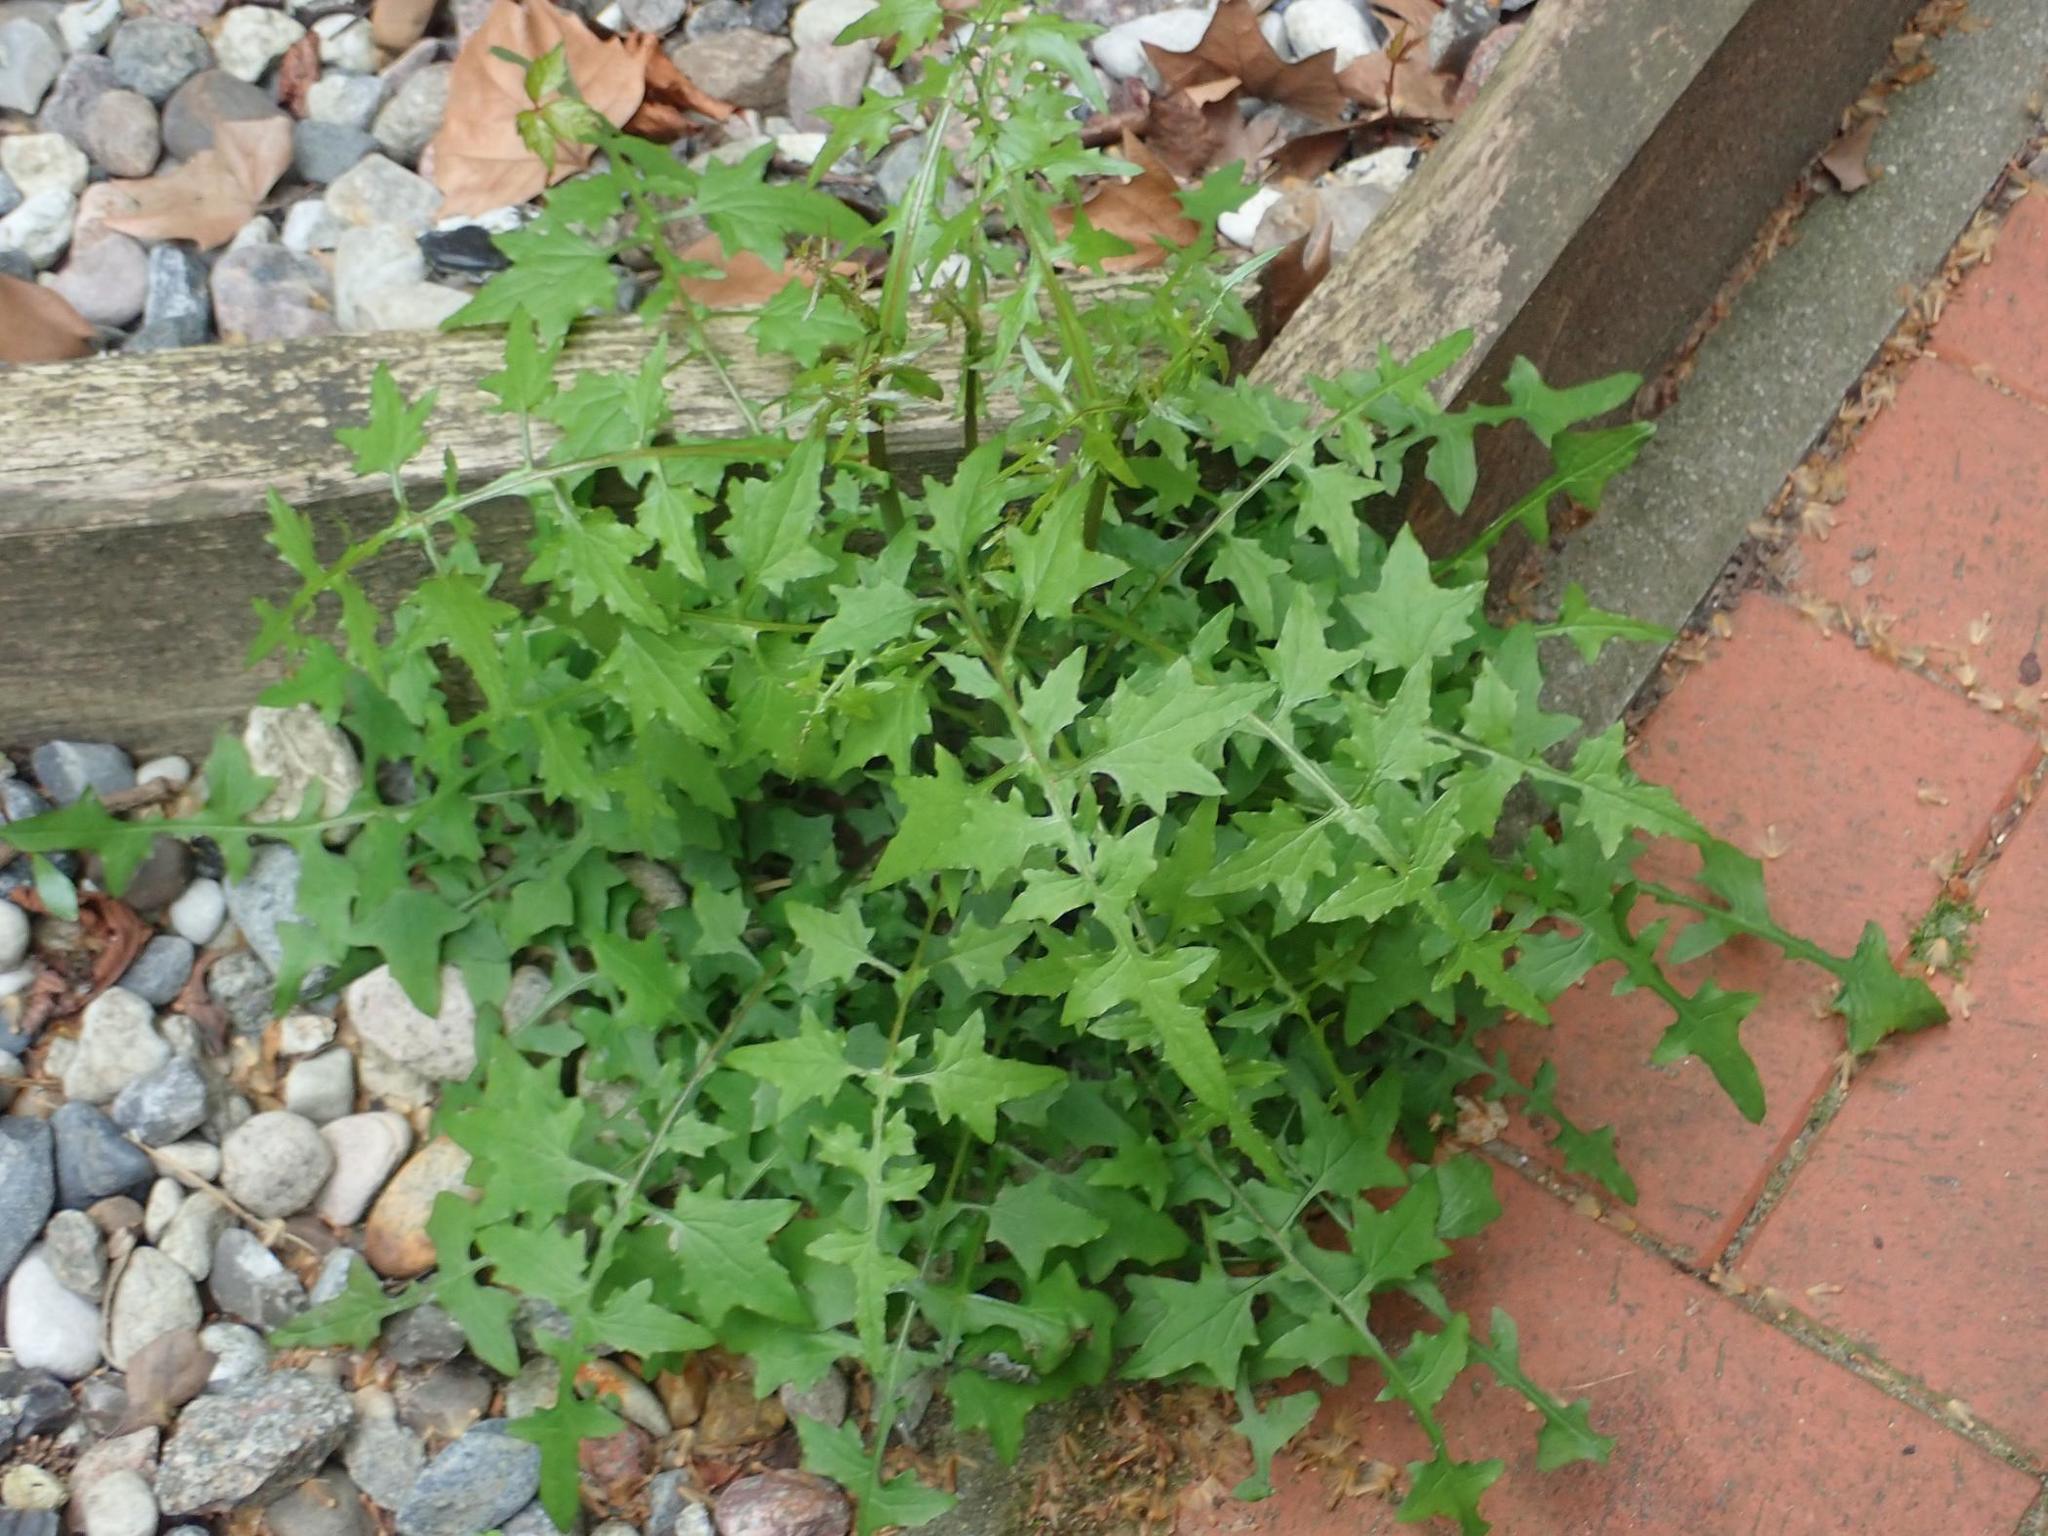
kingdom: Plantae
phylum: Tracheophyta
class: Magnoliopsida
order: Asterales
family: Asteraceae
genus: Mycelis
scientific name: Mycelis muralis
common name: Wall lettuce
